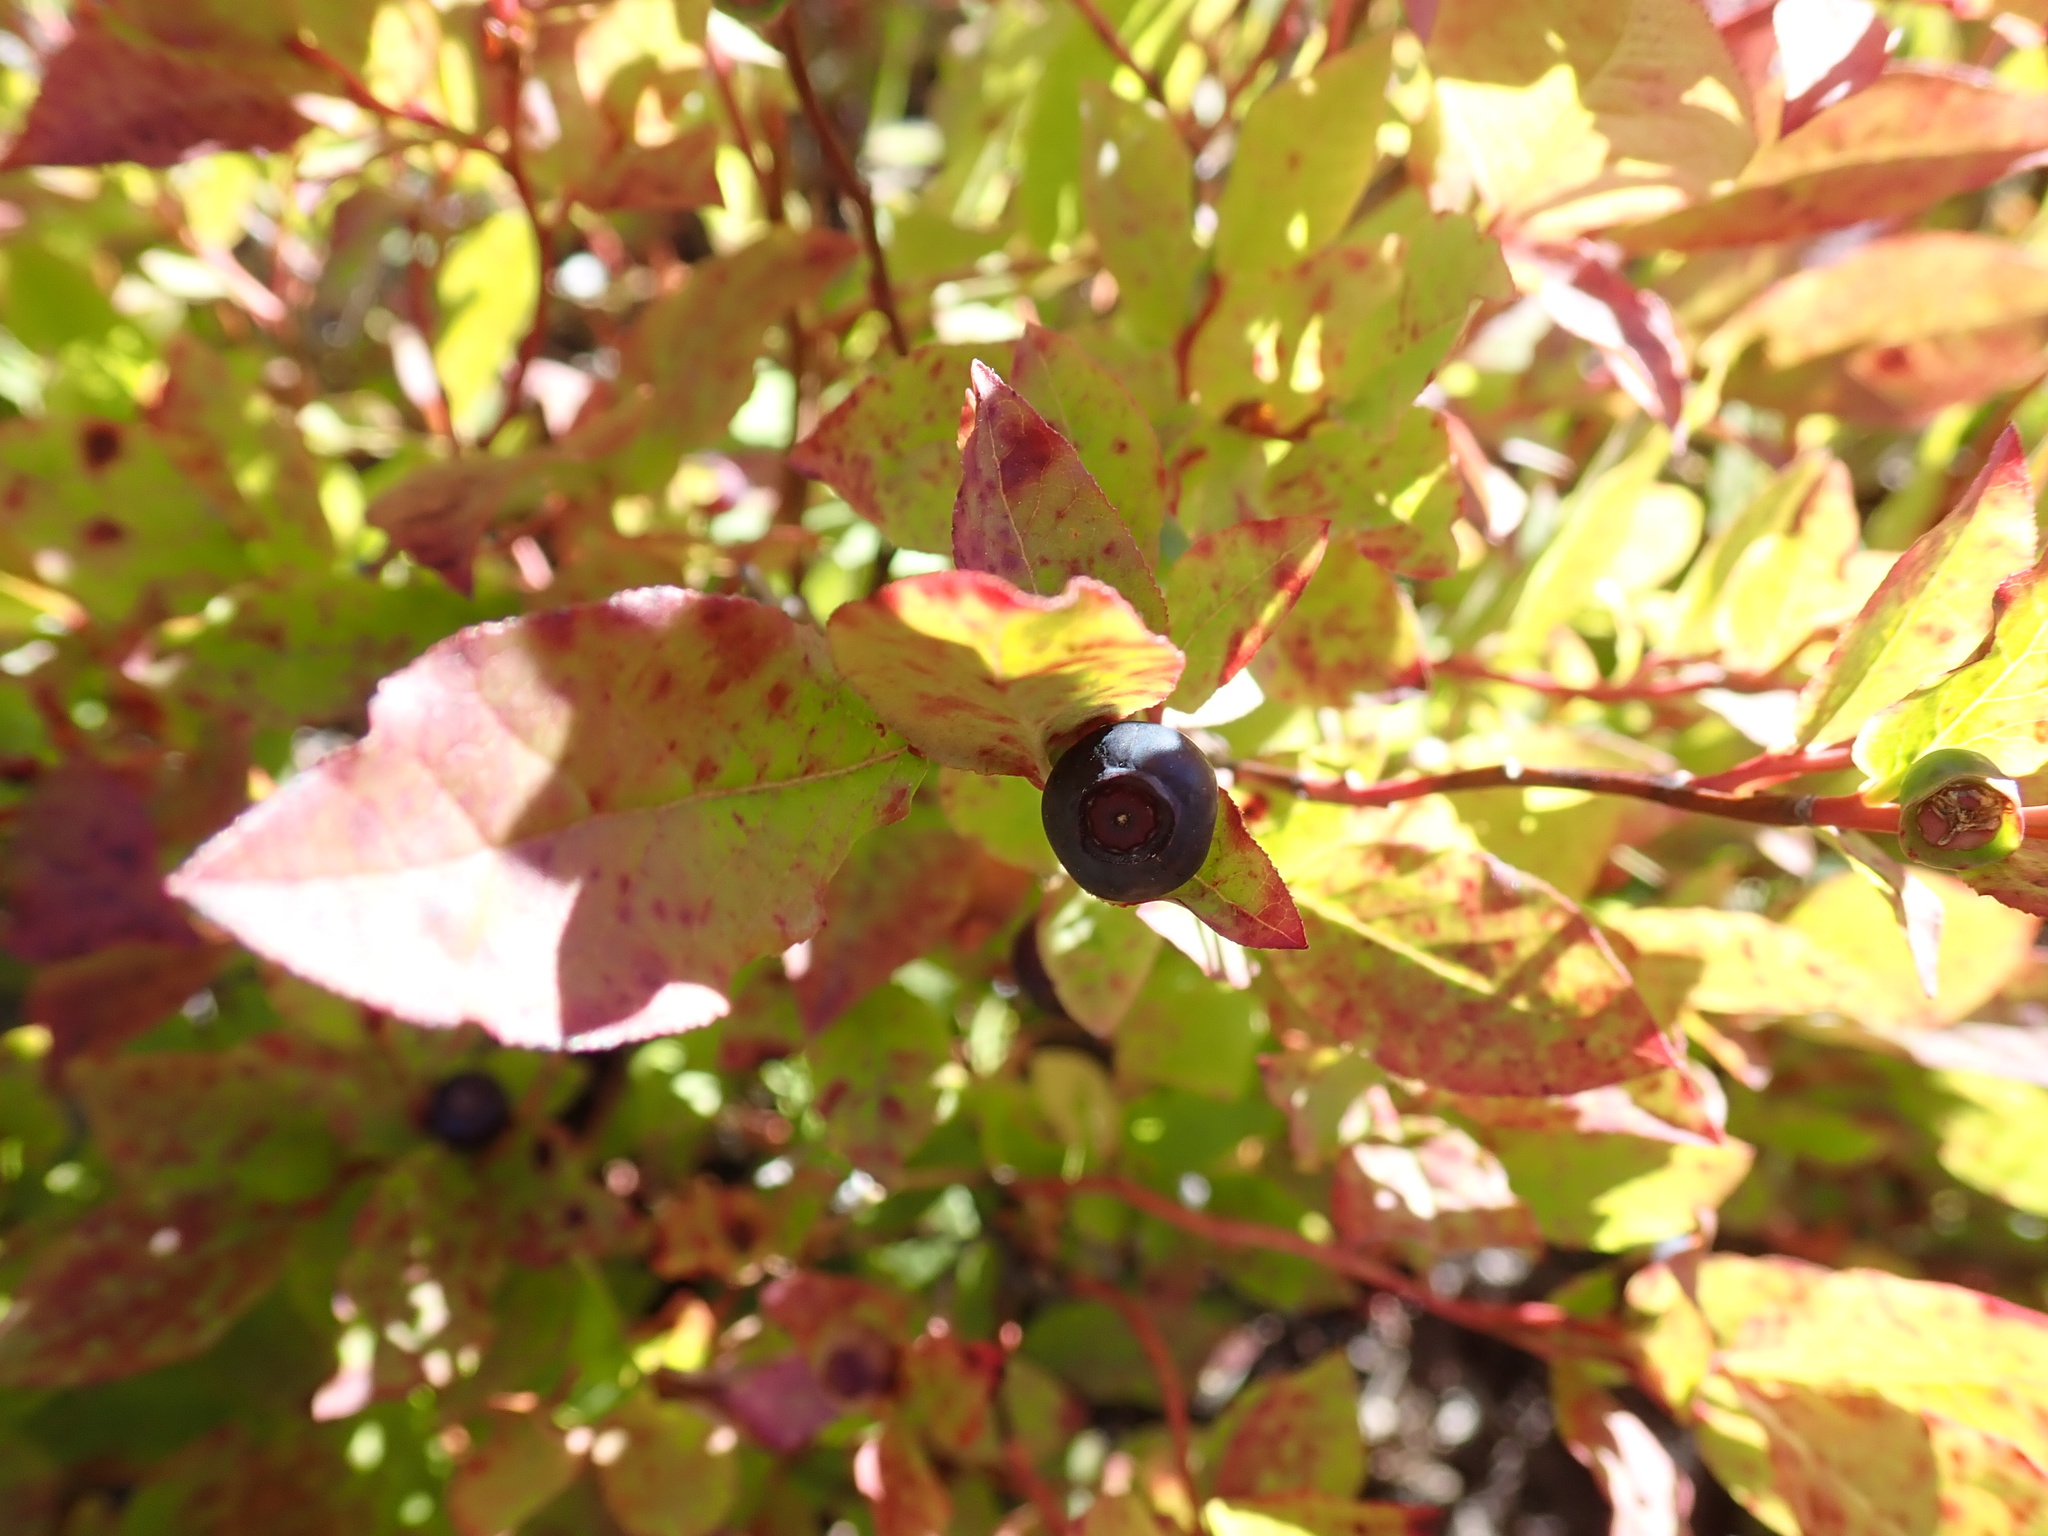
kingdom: Plantae
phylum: Tracheophyta
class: Magnoliopsida
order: Ericales
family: Ericaceae
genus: Vaccinium
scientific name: Vaccinium membranaceum
